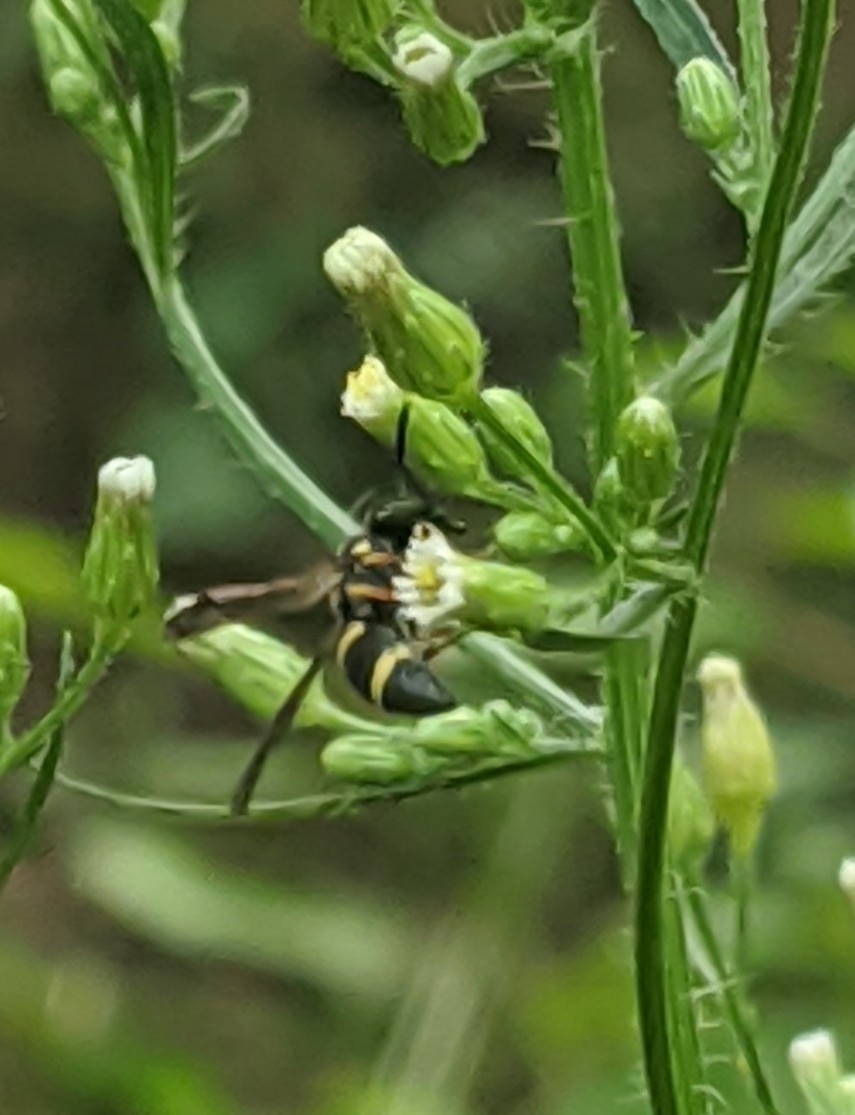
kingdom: Animalia
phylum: Arthropoda
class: Insecta
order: Hymenoptera
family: Eumenidae
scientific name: Eumenidae
